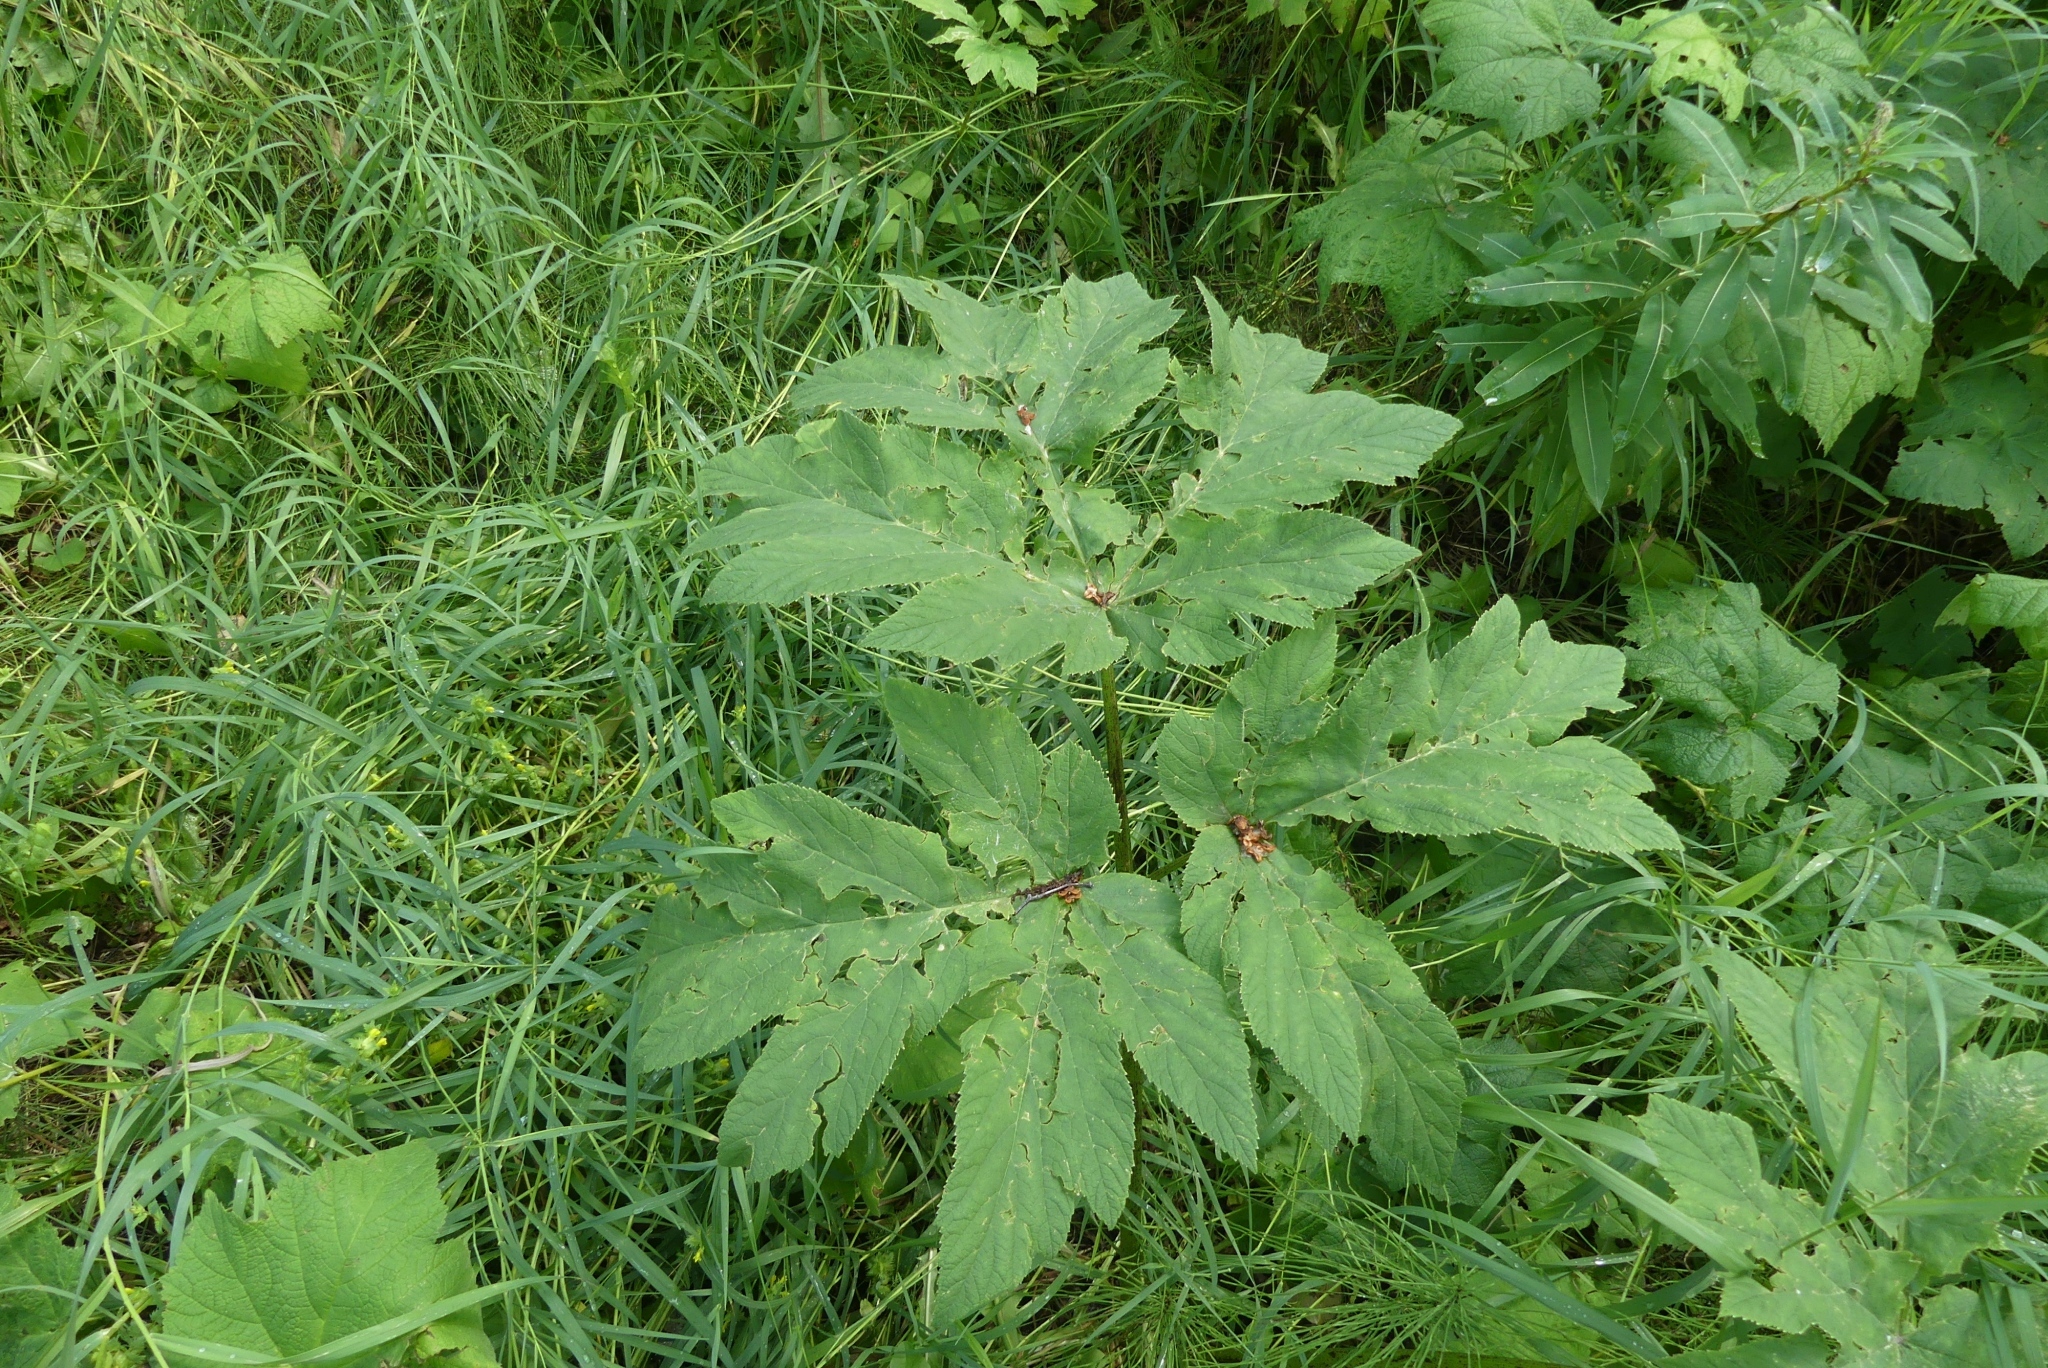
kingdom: Plantae
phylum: Tracheophyta
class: Magnoliopsida
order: Apiales
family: Apiaceae
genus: Heracleum
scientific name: Heracleum maximum
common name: American cow parsnip
